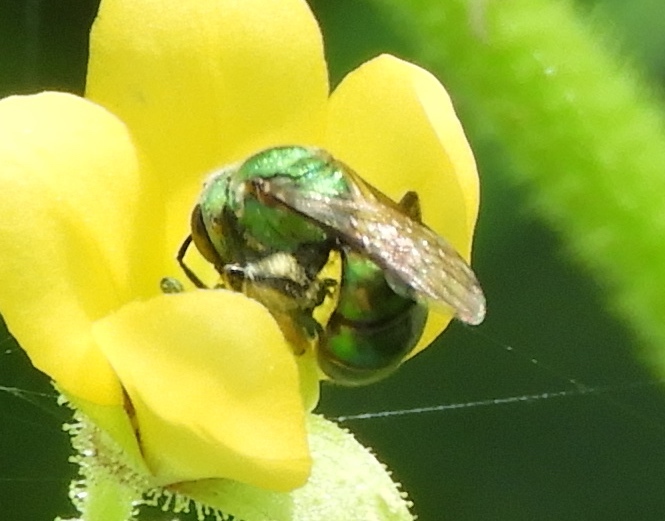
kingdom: Animalia
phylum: Arthropoda
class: Insecta
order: Hymenoptera
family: Halictidae
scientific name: Halictidae
